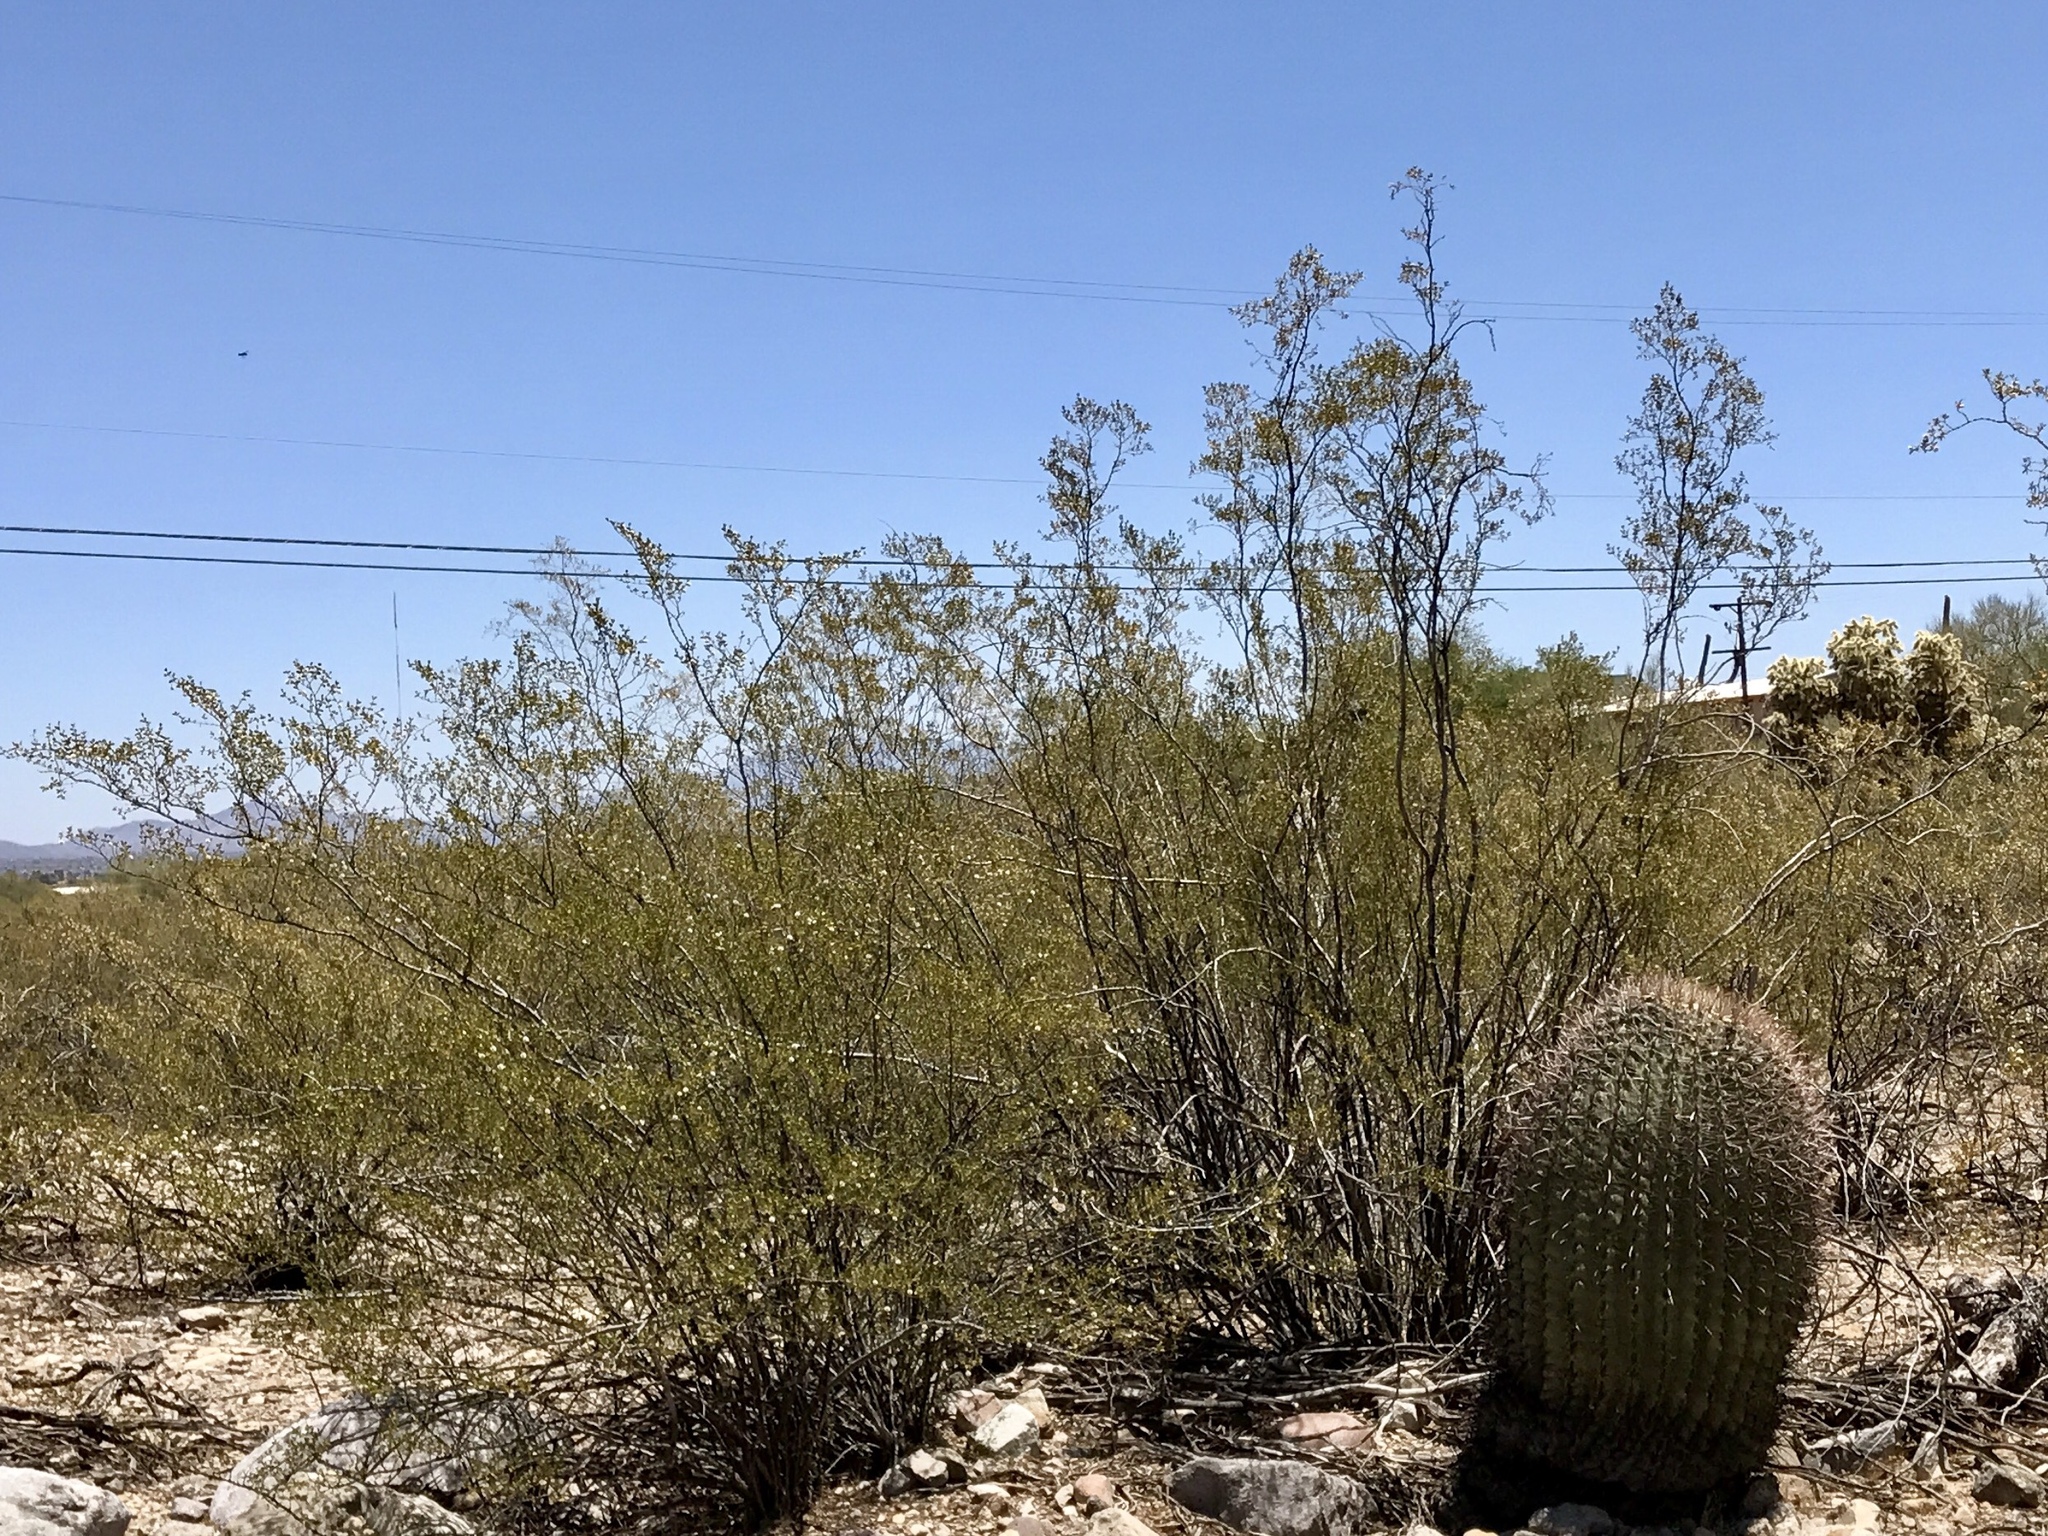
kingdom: Plantae
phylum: Tracheophyta
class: Magnoliopsida
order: Zygophyllales
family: Zygophyllaceae
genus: Larrea
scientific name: Larrea tridentata
